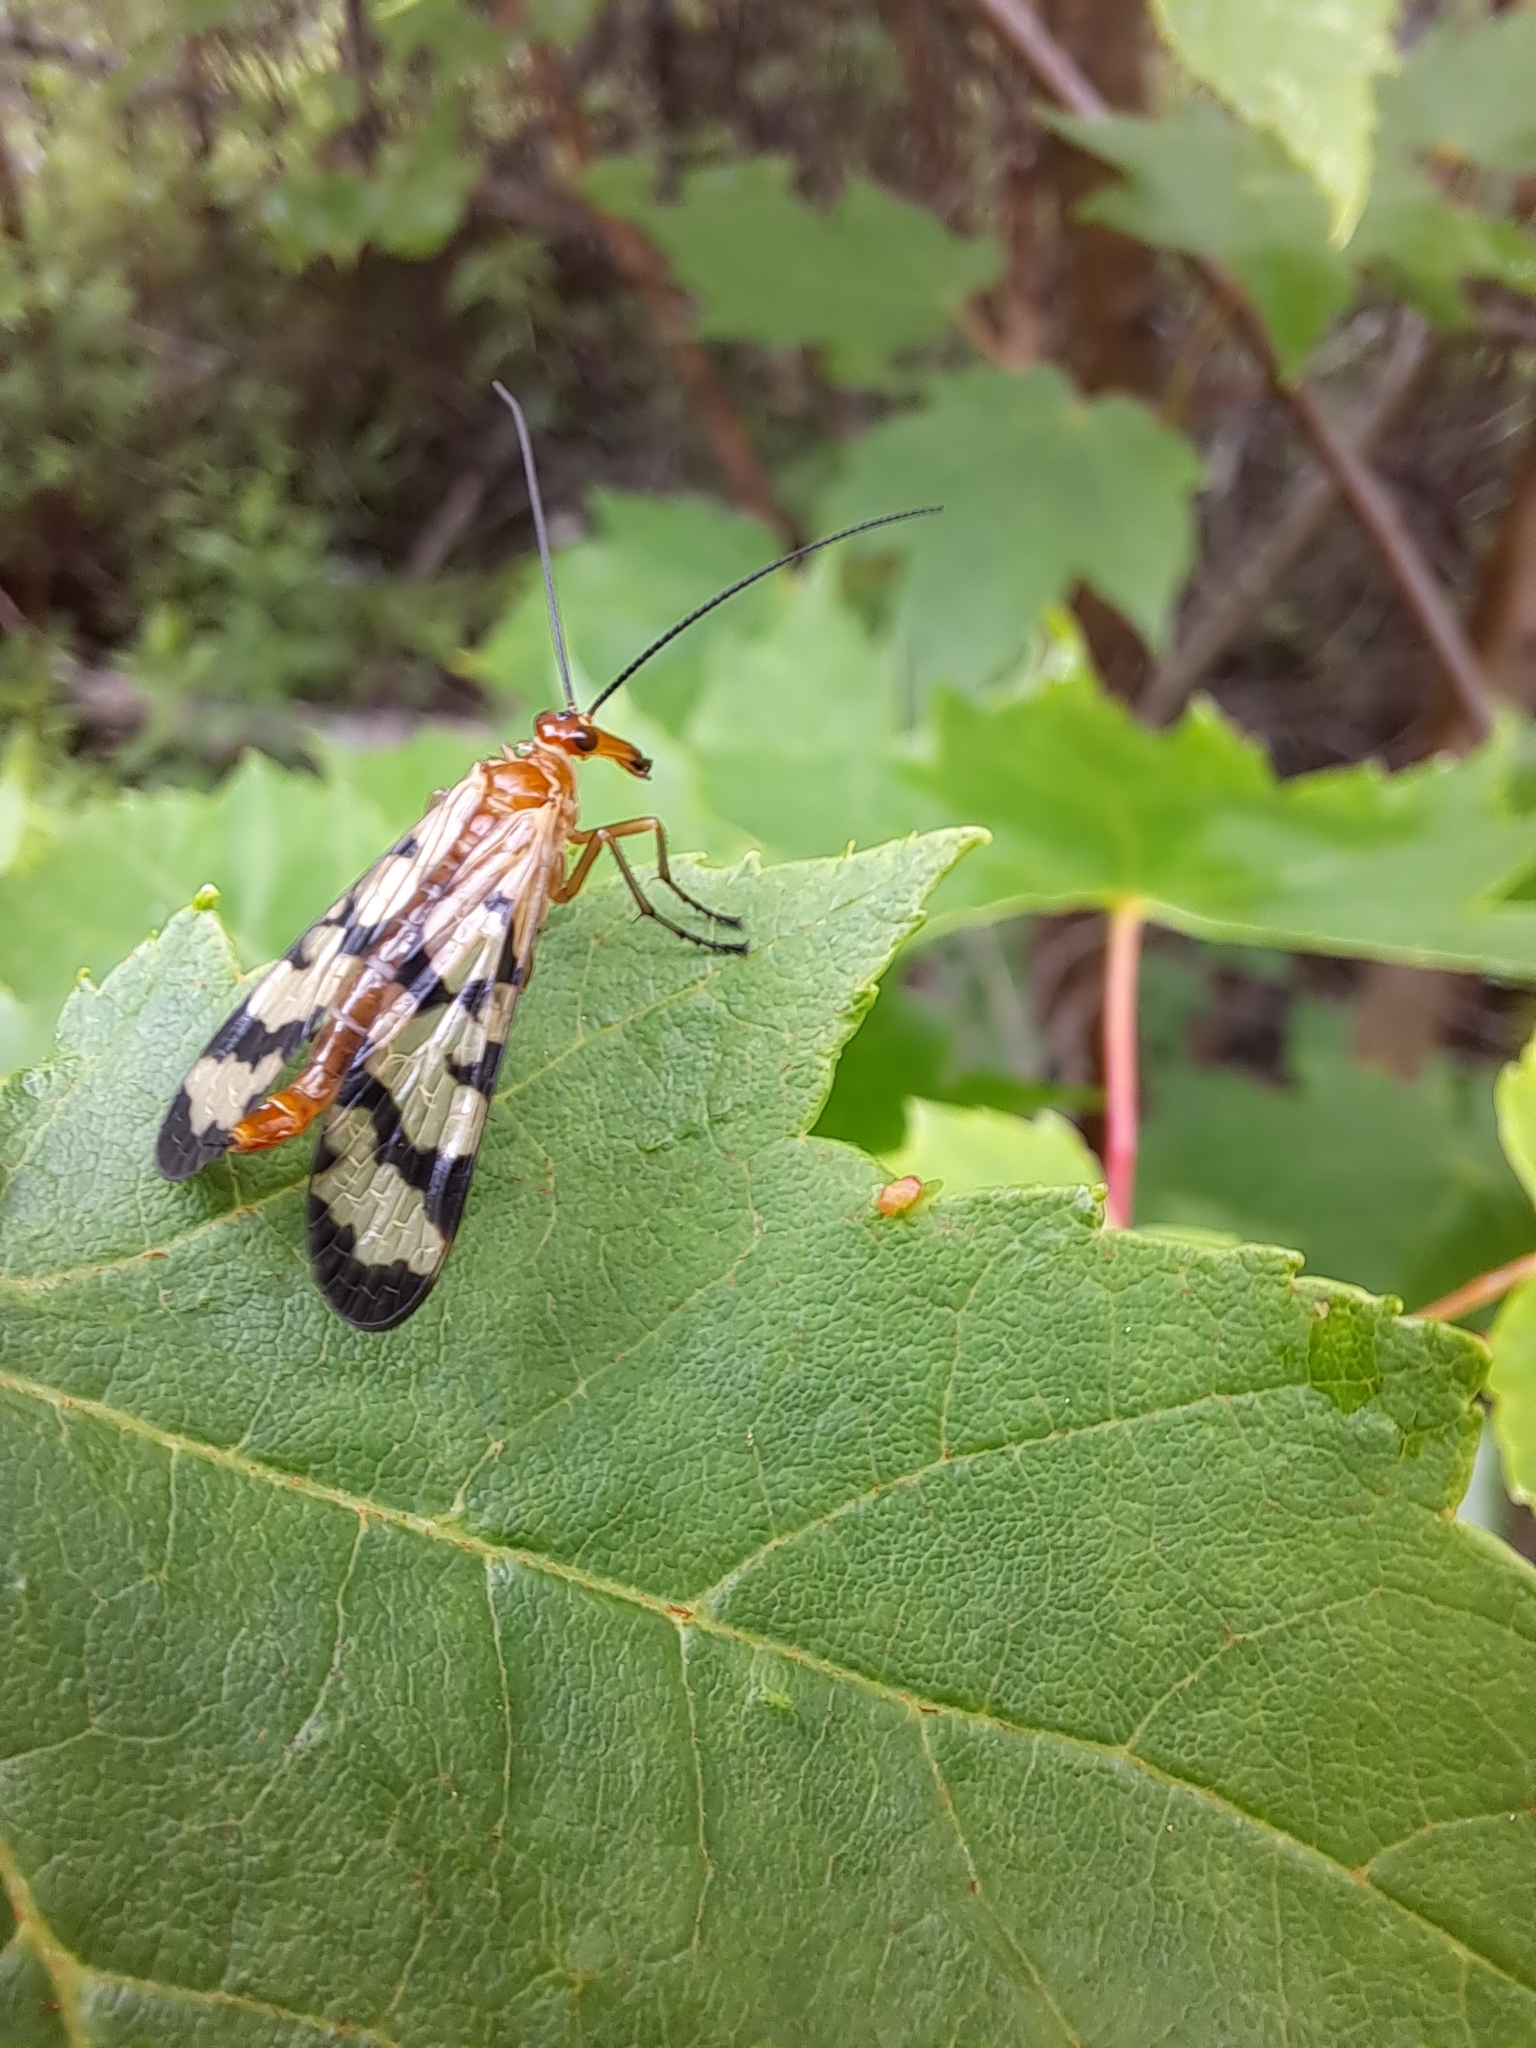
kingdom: Animalia
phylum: Arthropoda
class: Insecta
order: Mecoptera
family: Panorpidae
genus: Panorpa
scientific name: Panorpa galerita
